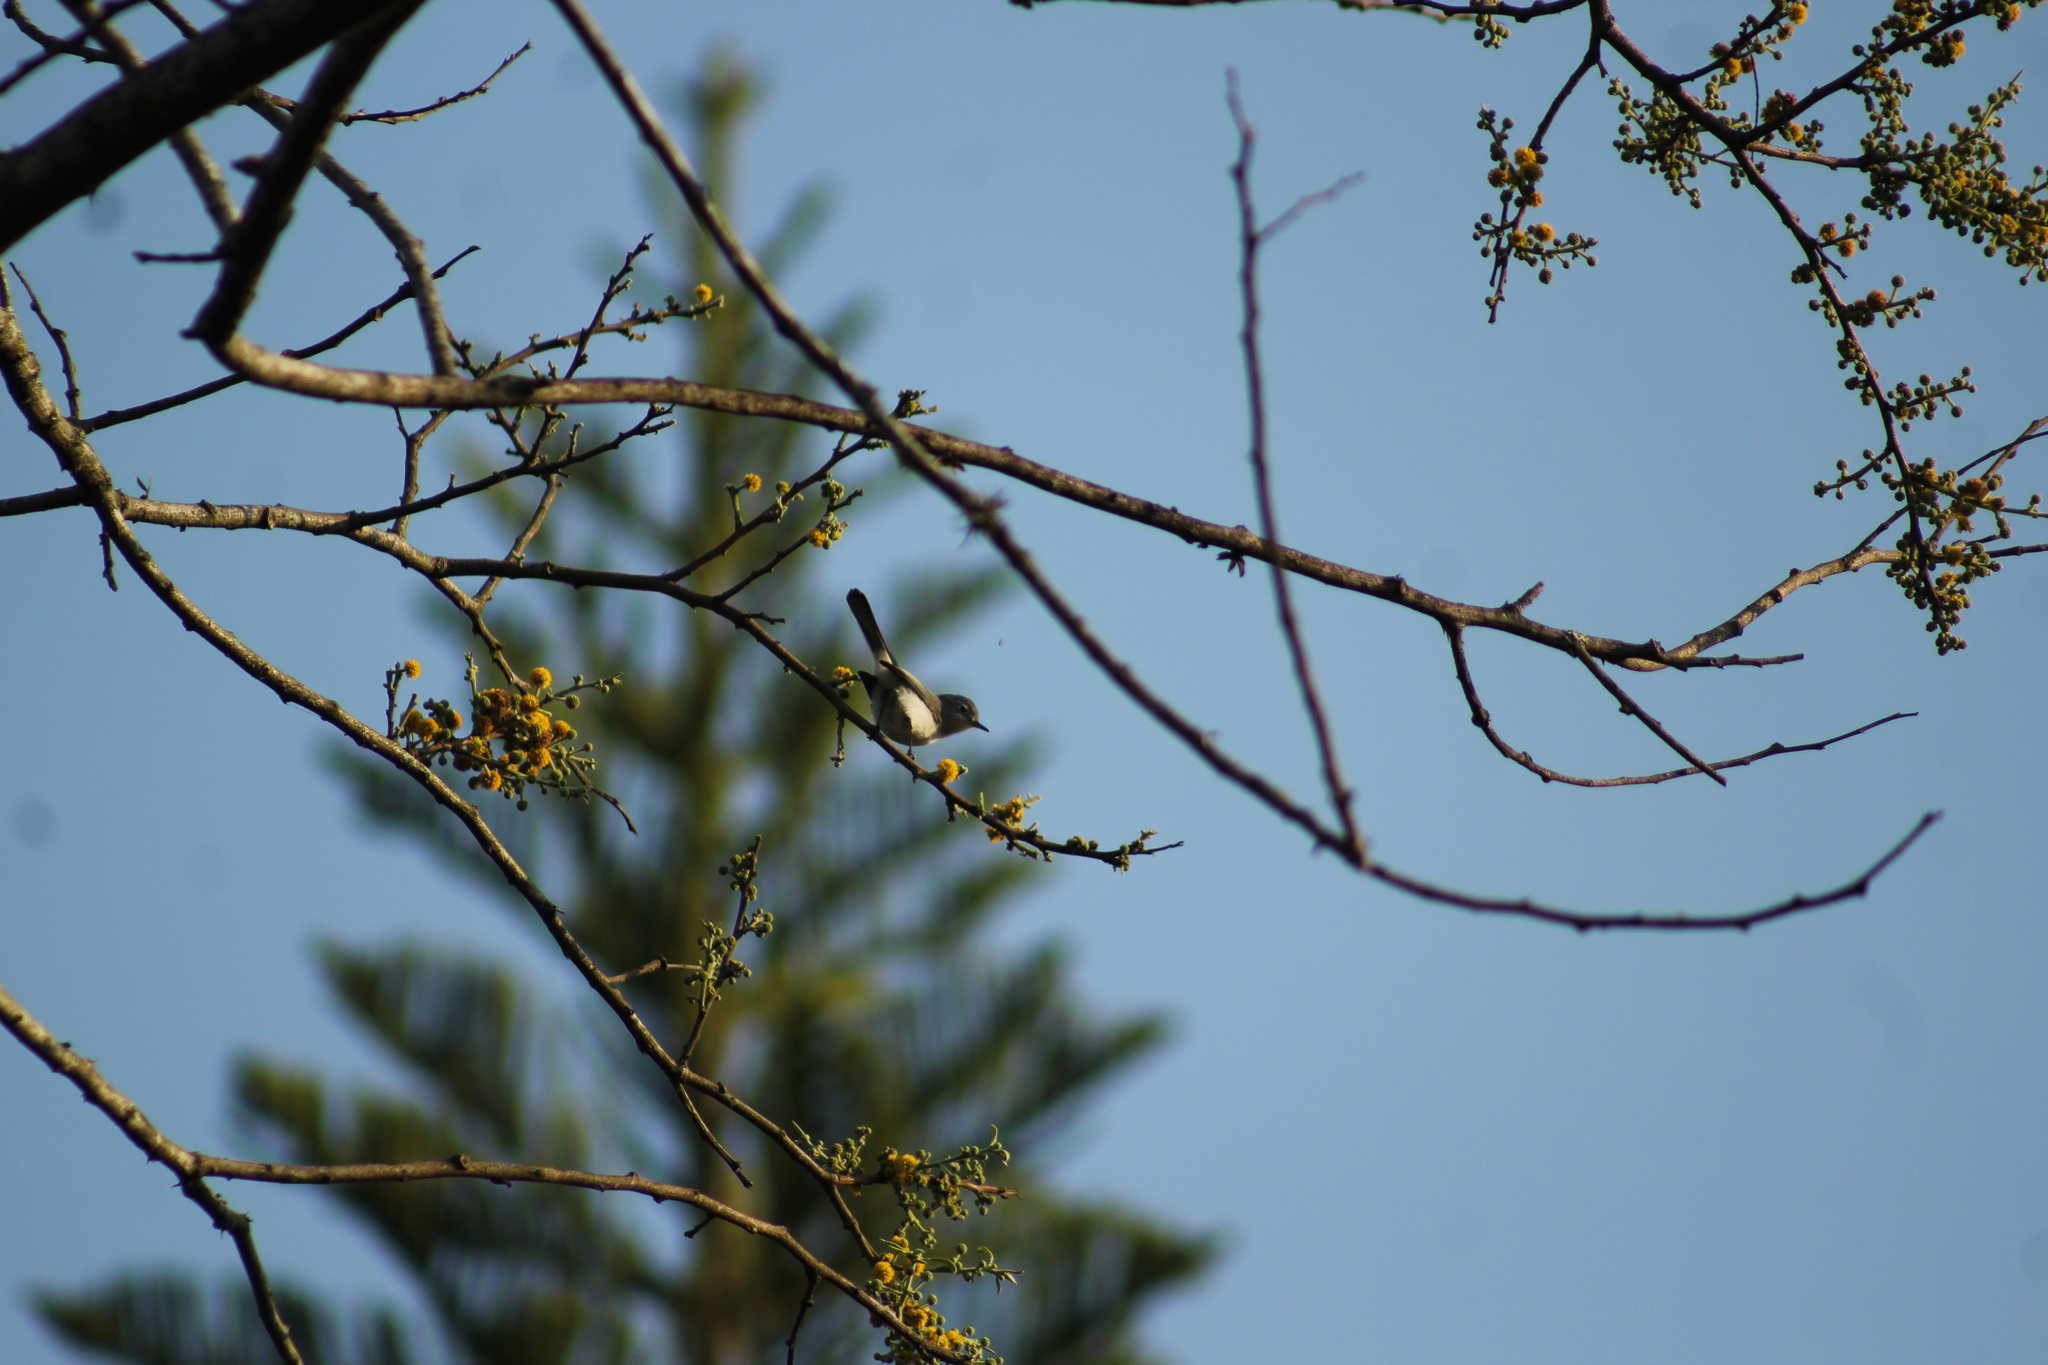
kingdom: Animalia
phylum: Chordata
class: Aves
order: Passeriformes
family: Polioptilidae
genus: Polioptila
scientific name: Polioptila caerulea
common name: Blue-gray gnatcatcher
